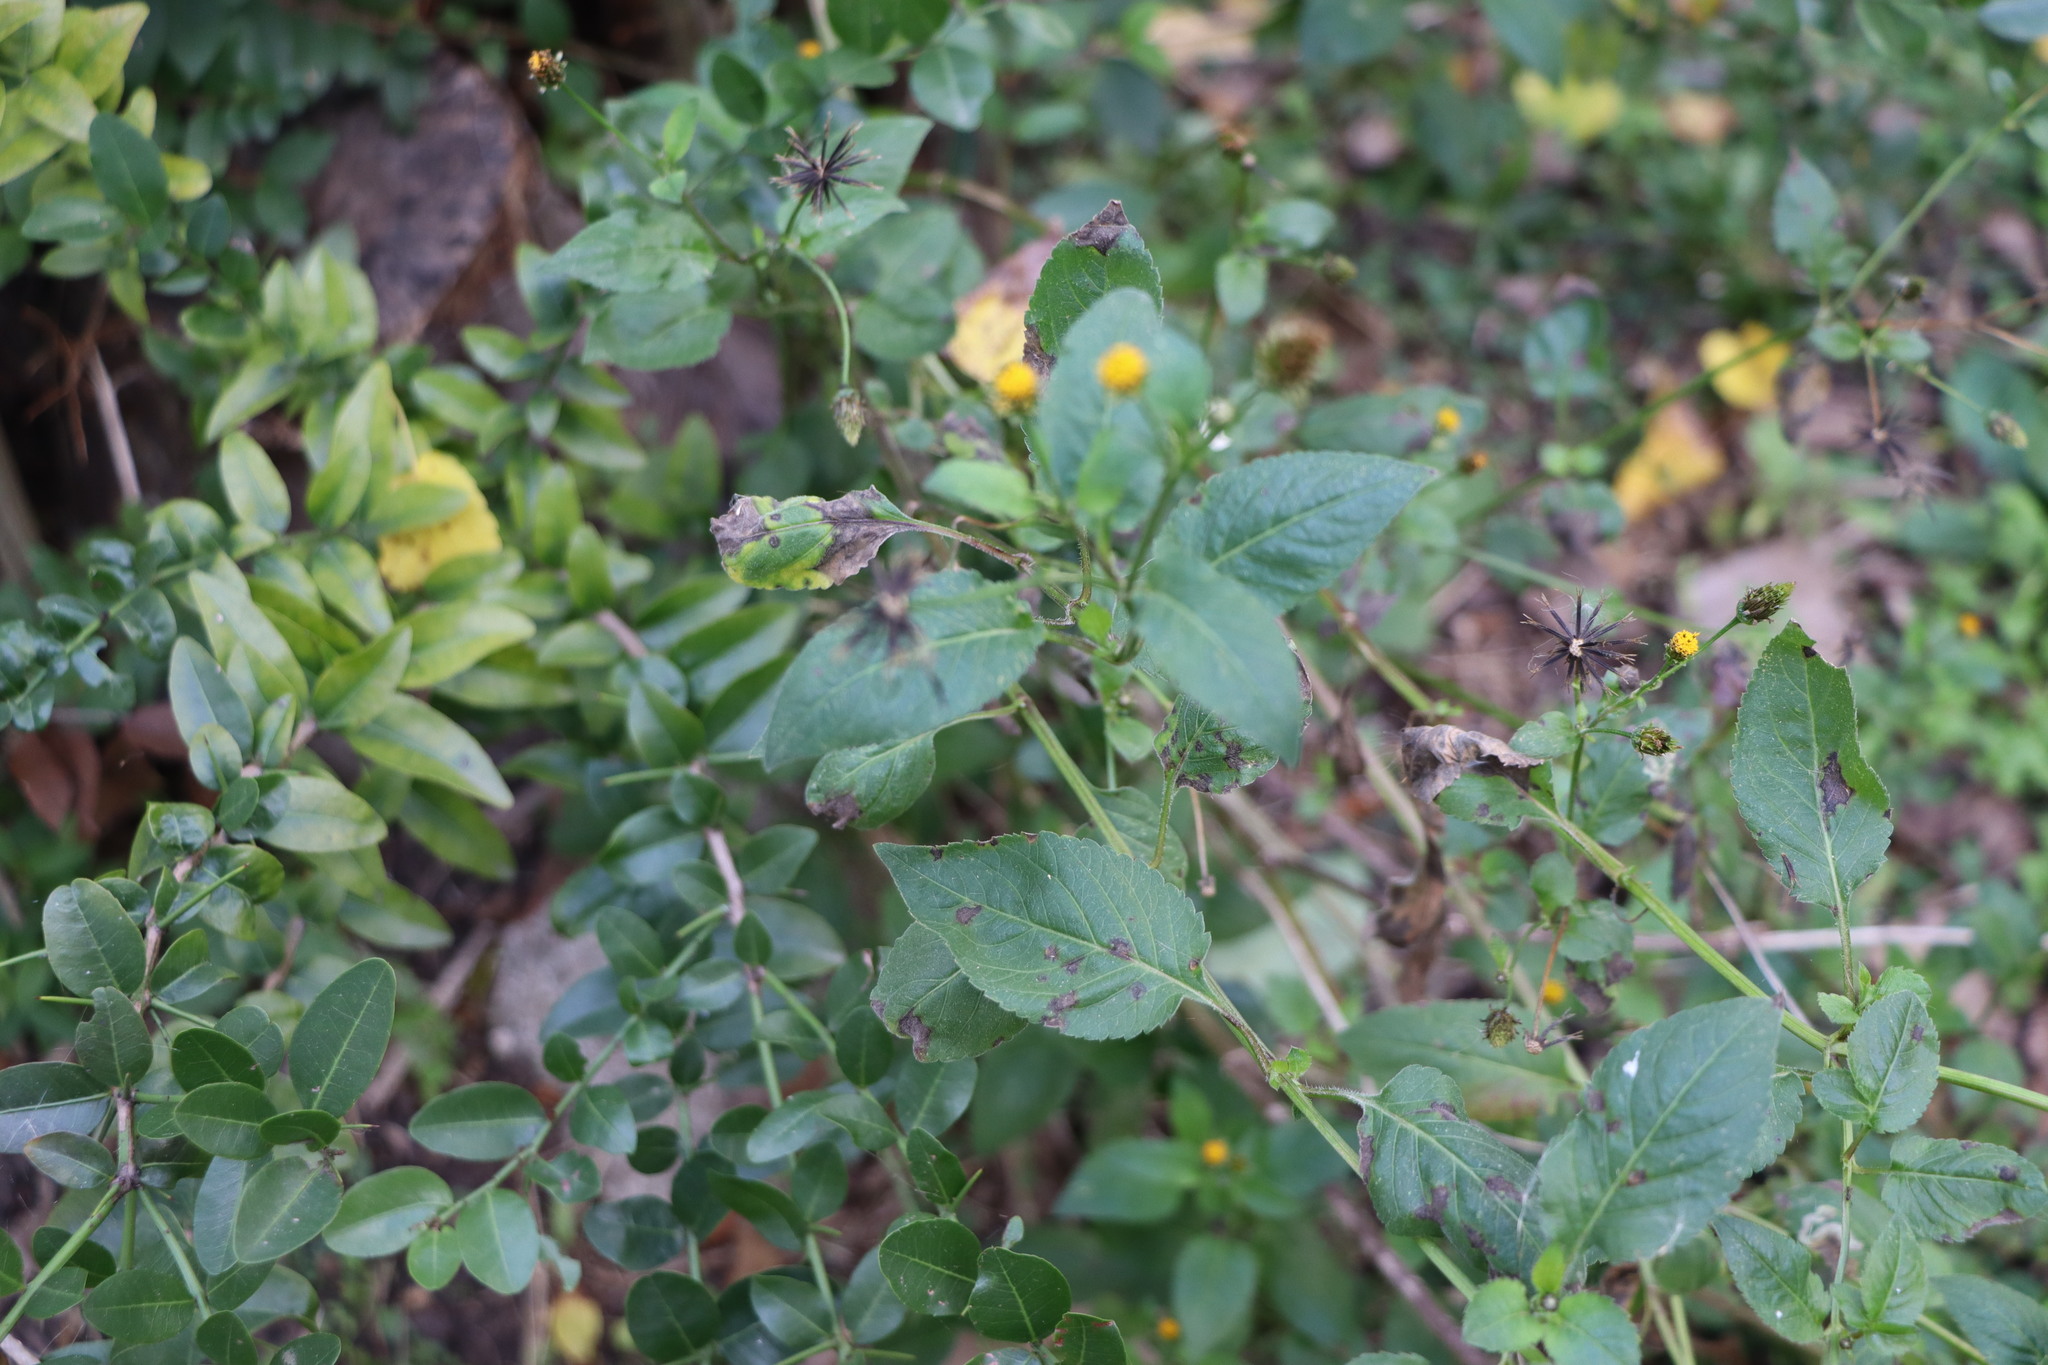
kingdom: Plantae
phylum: Tracheophyta
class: Magnoliopsida
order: Asterales
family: Asteraceae
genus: Bidens
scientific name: Bidens pilosa
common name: Black-jack
